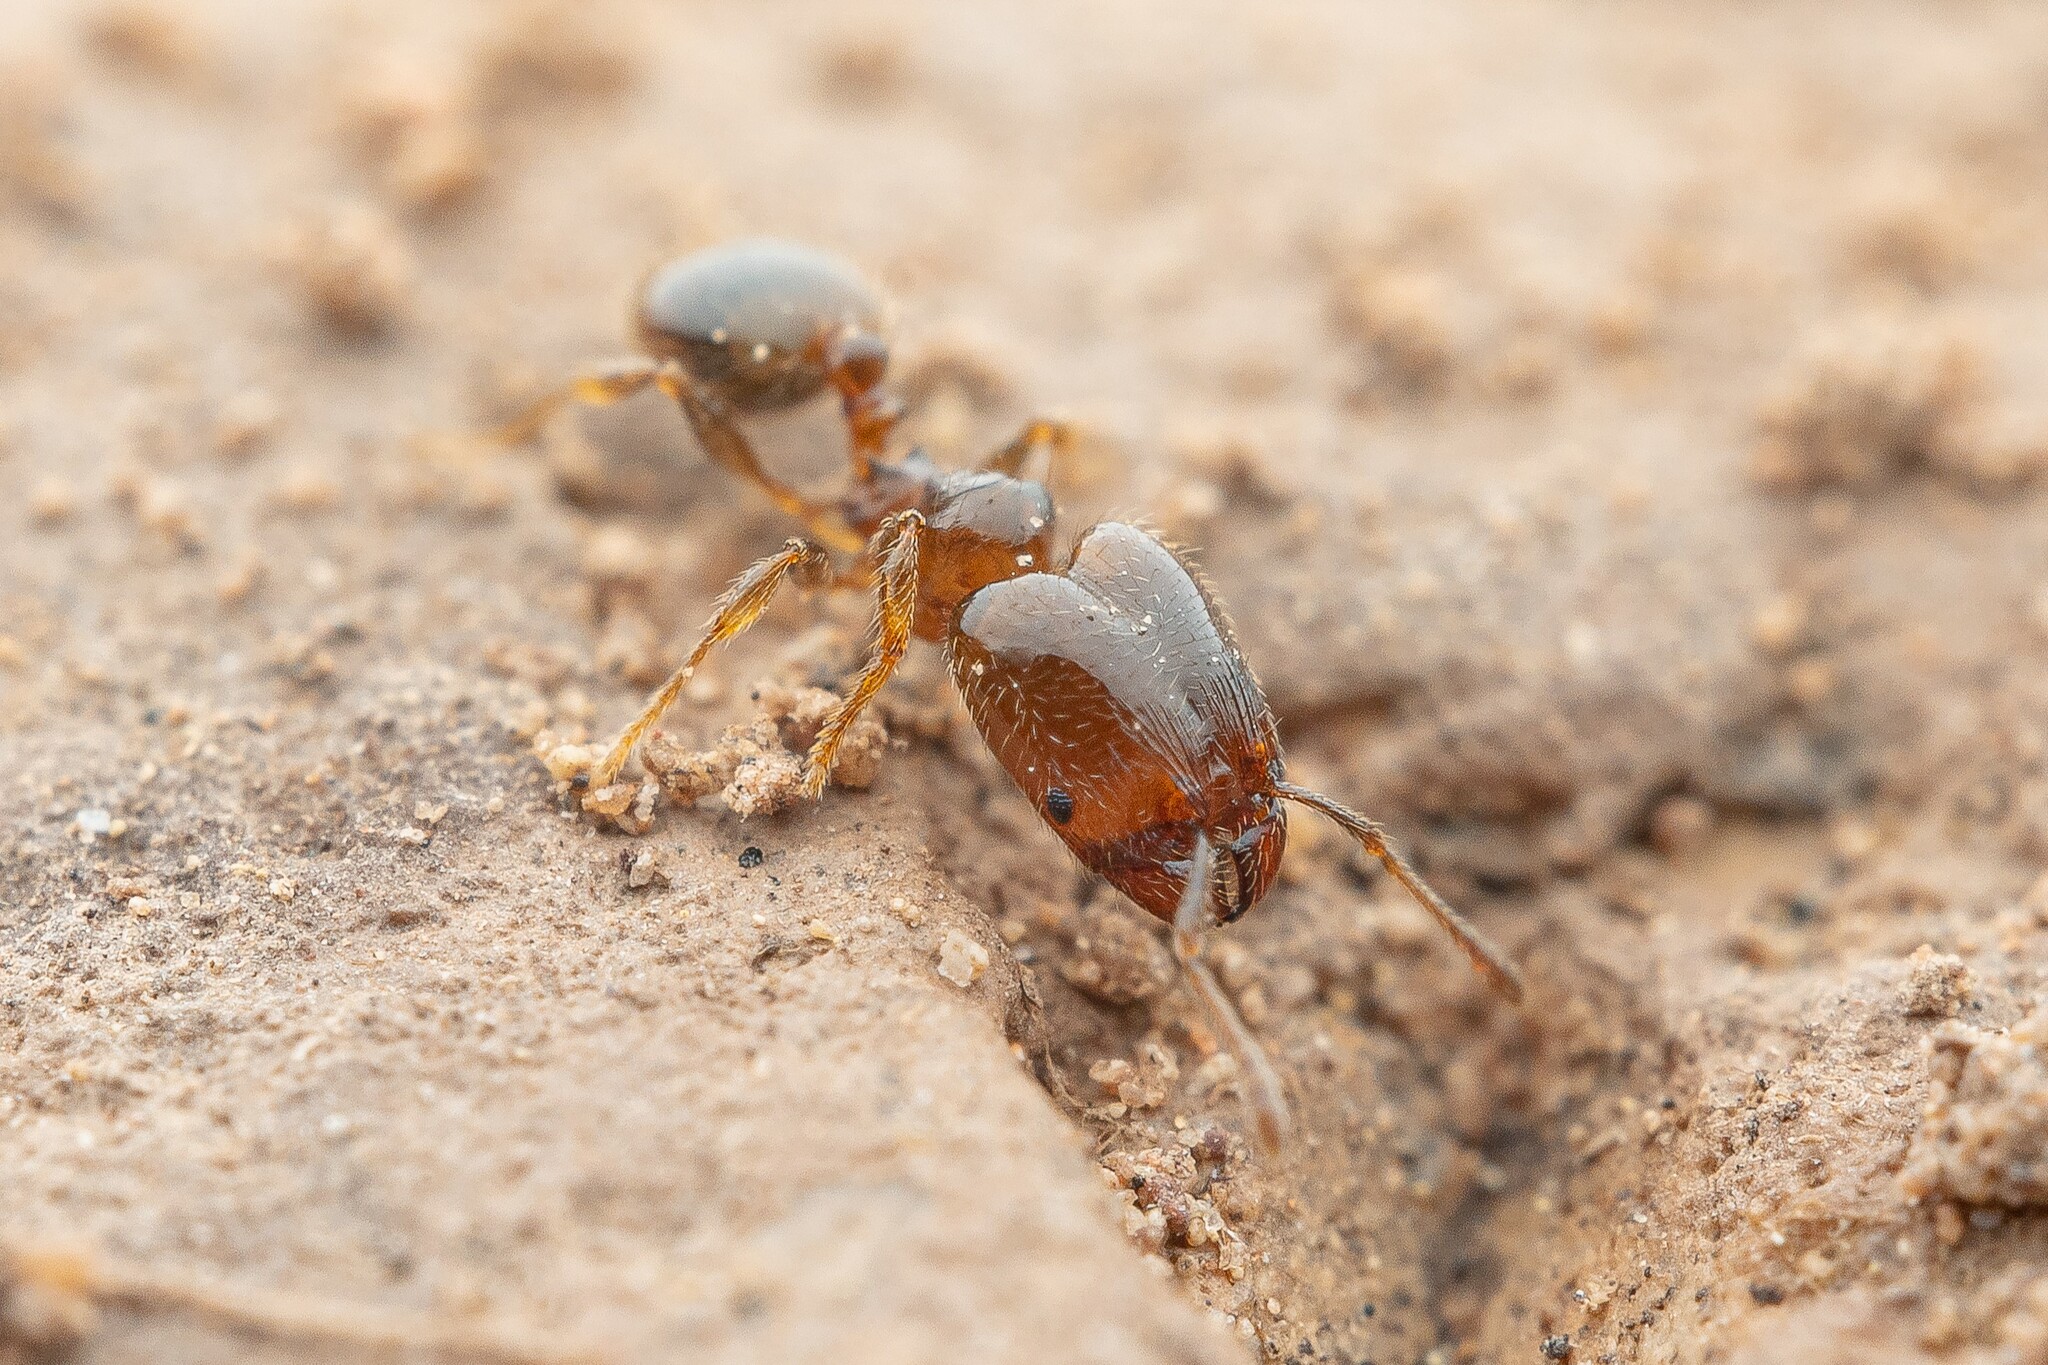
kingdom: Animalia
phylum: Arthropoda
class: Insecta
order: Hymenoptera
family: Formicidae
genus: Pheidole
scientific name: Pheidole bicarinata
